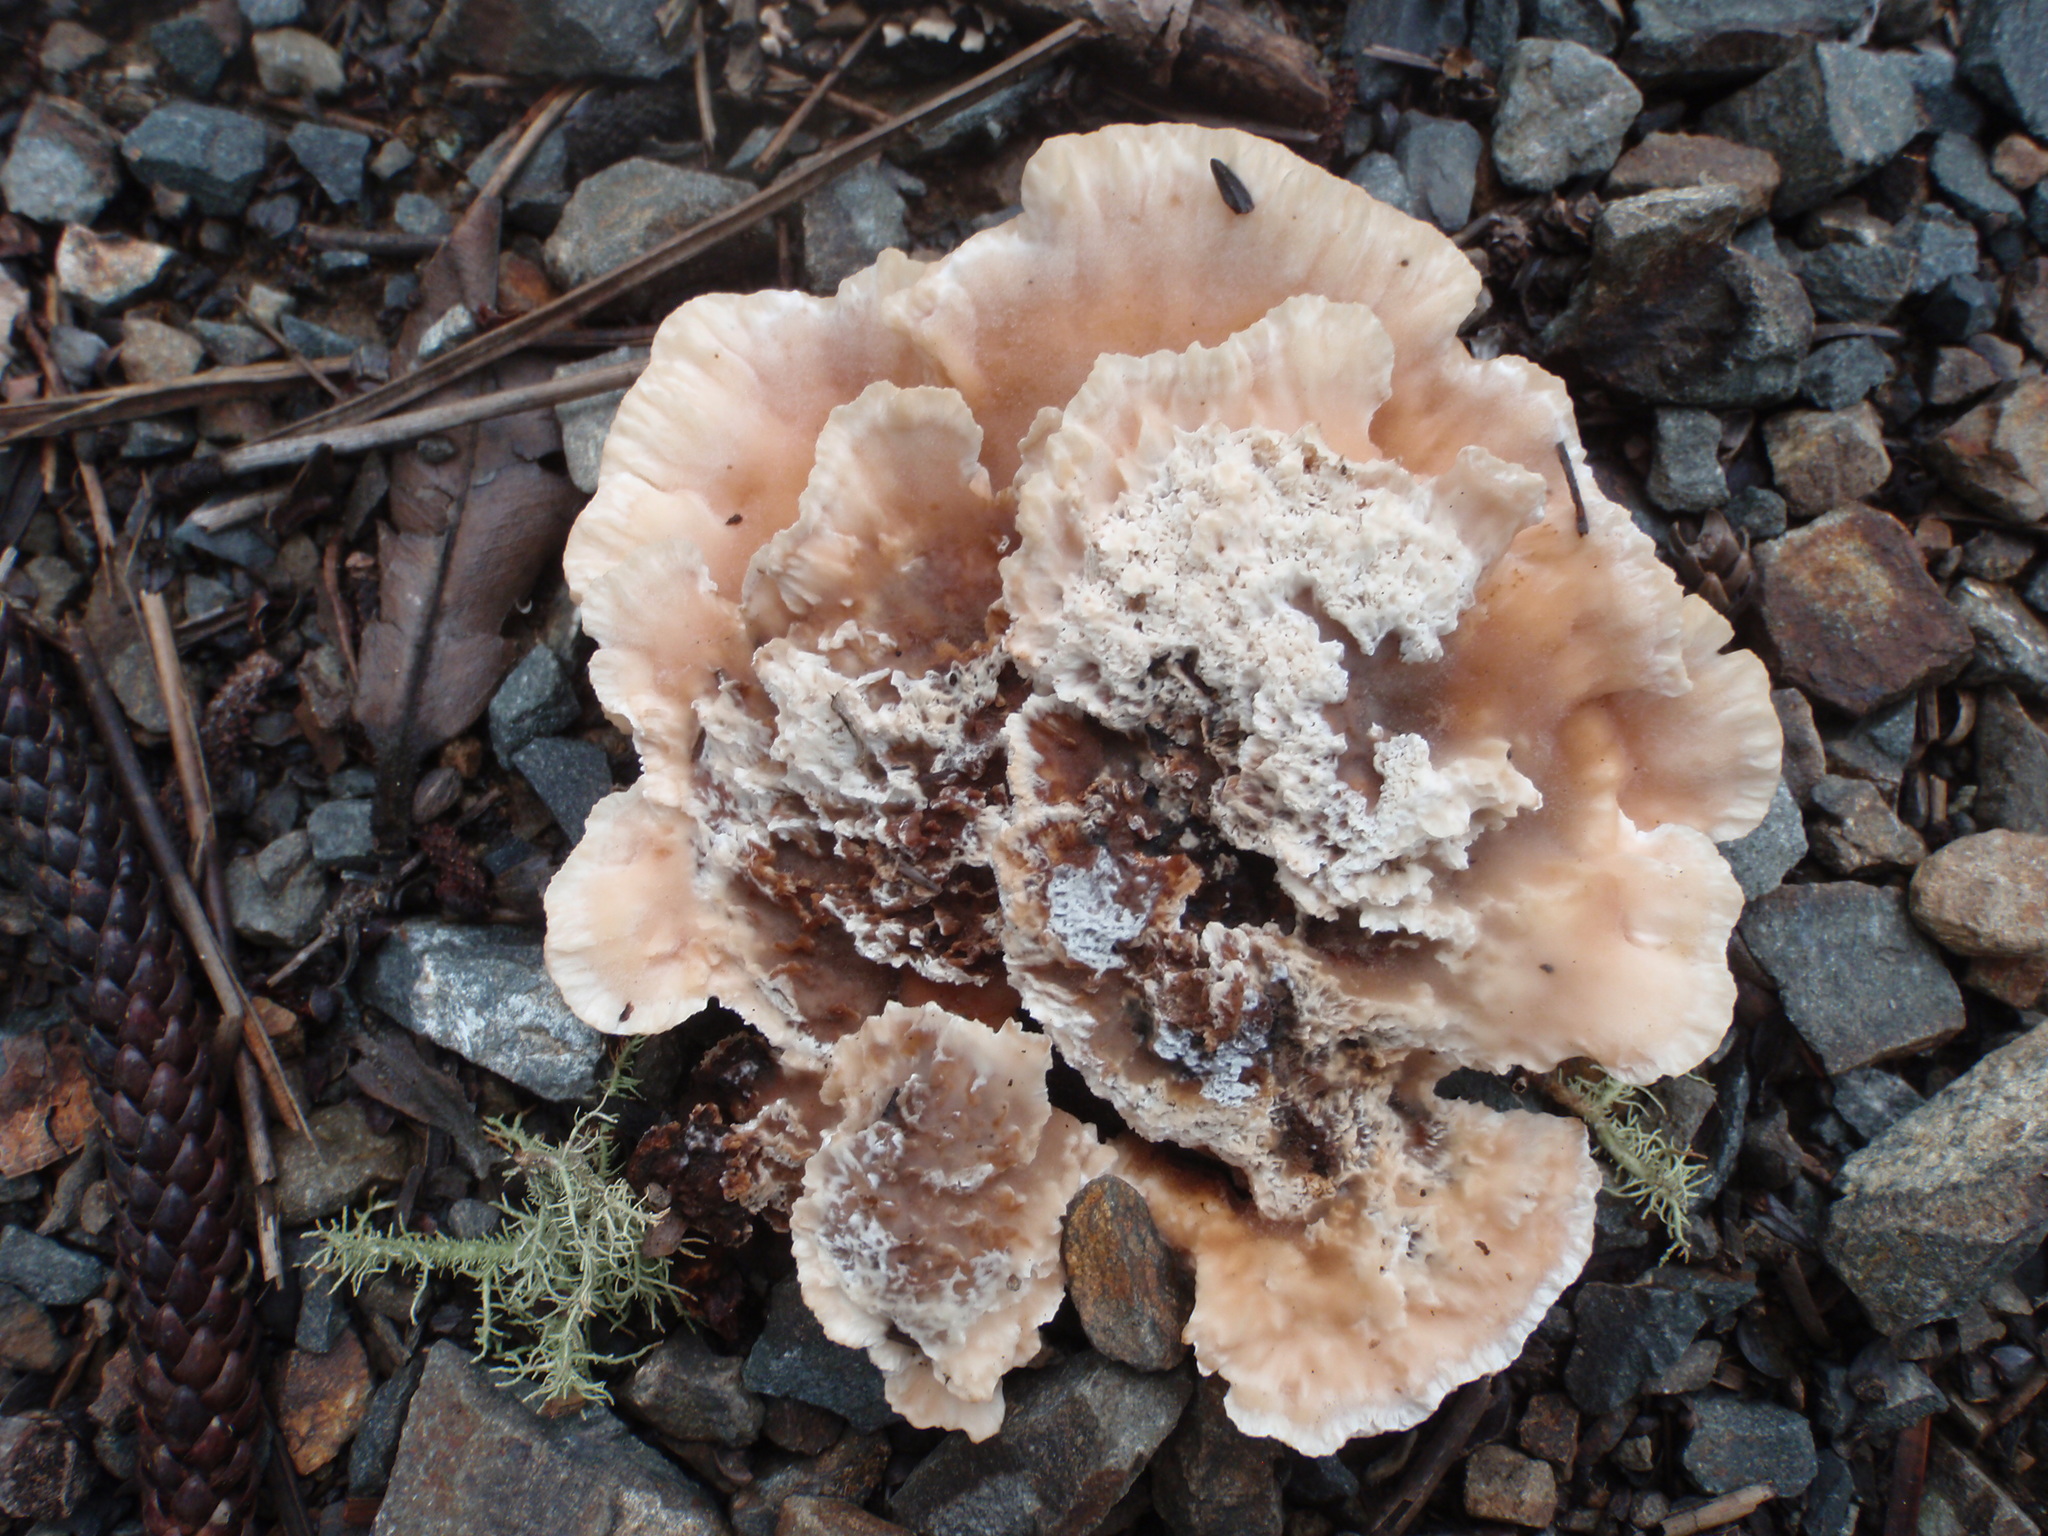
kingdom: Fungi
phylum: Basidiomycota
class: Agaricomycetes
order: Polyporales
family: Podoscyphaceae
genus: Abortiporus
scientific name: Abortiporus biennis
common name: Blushing rosette
